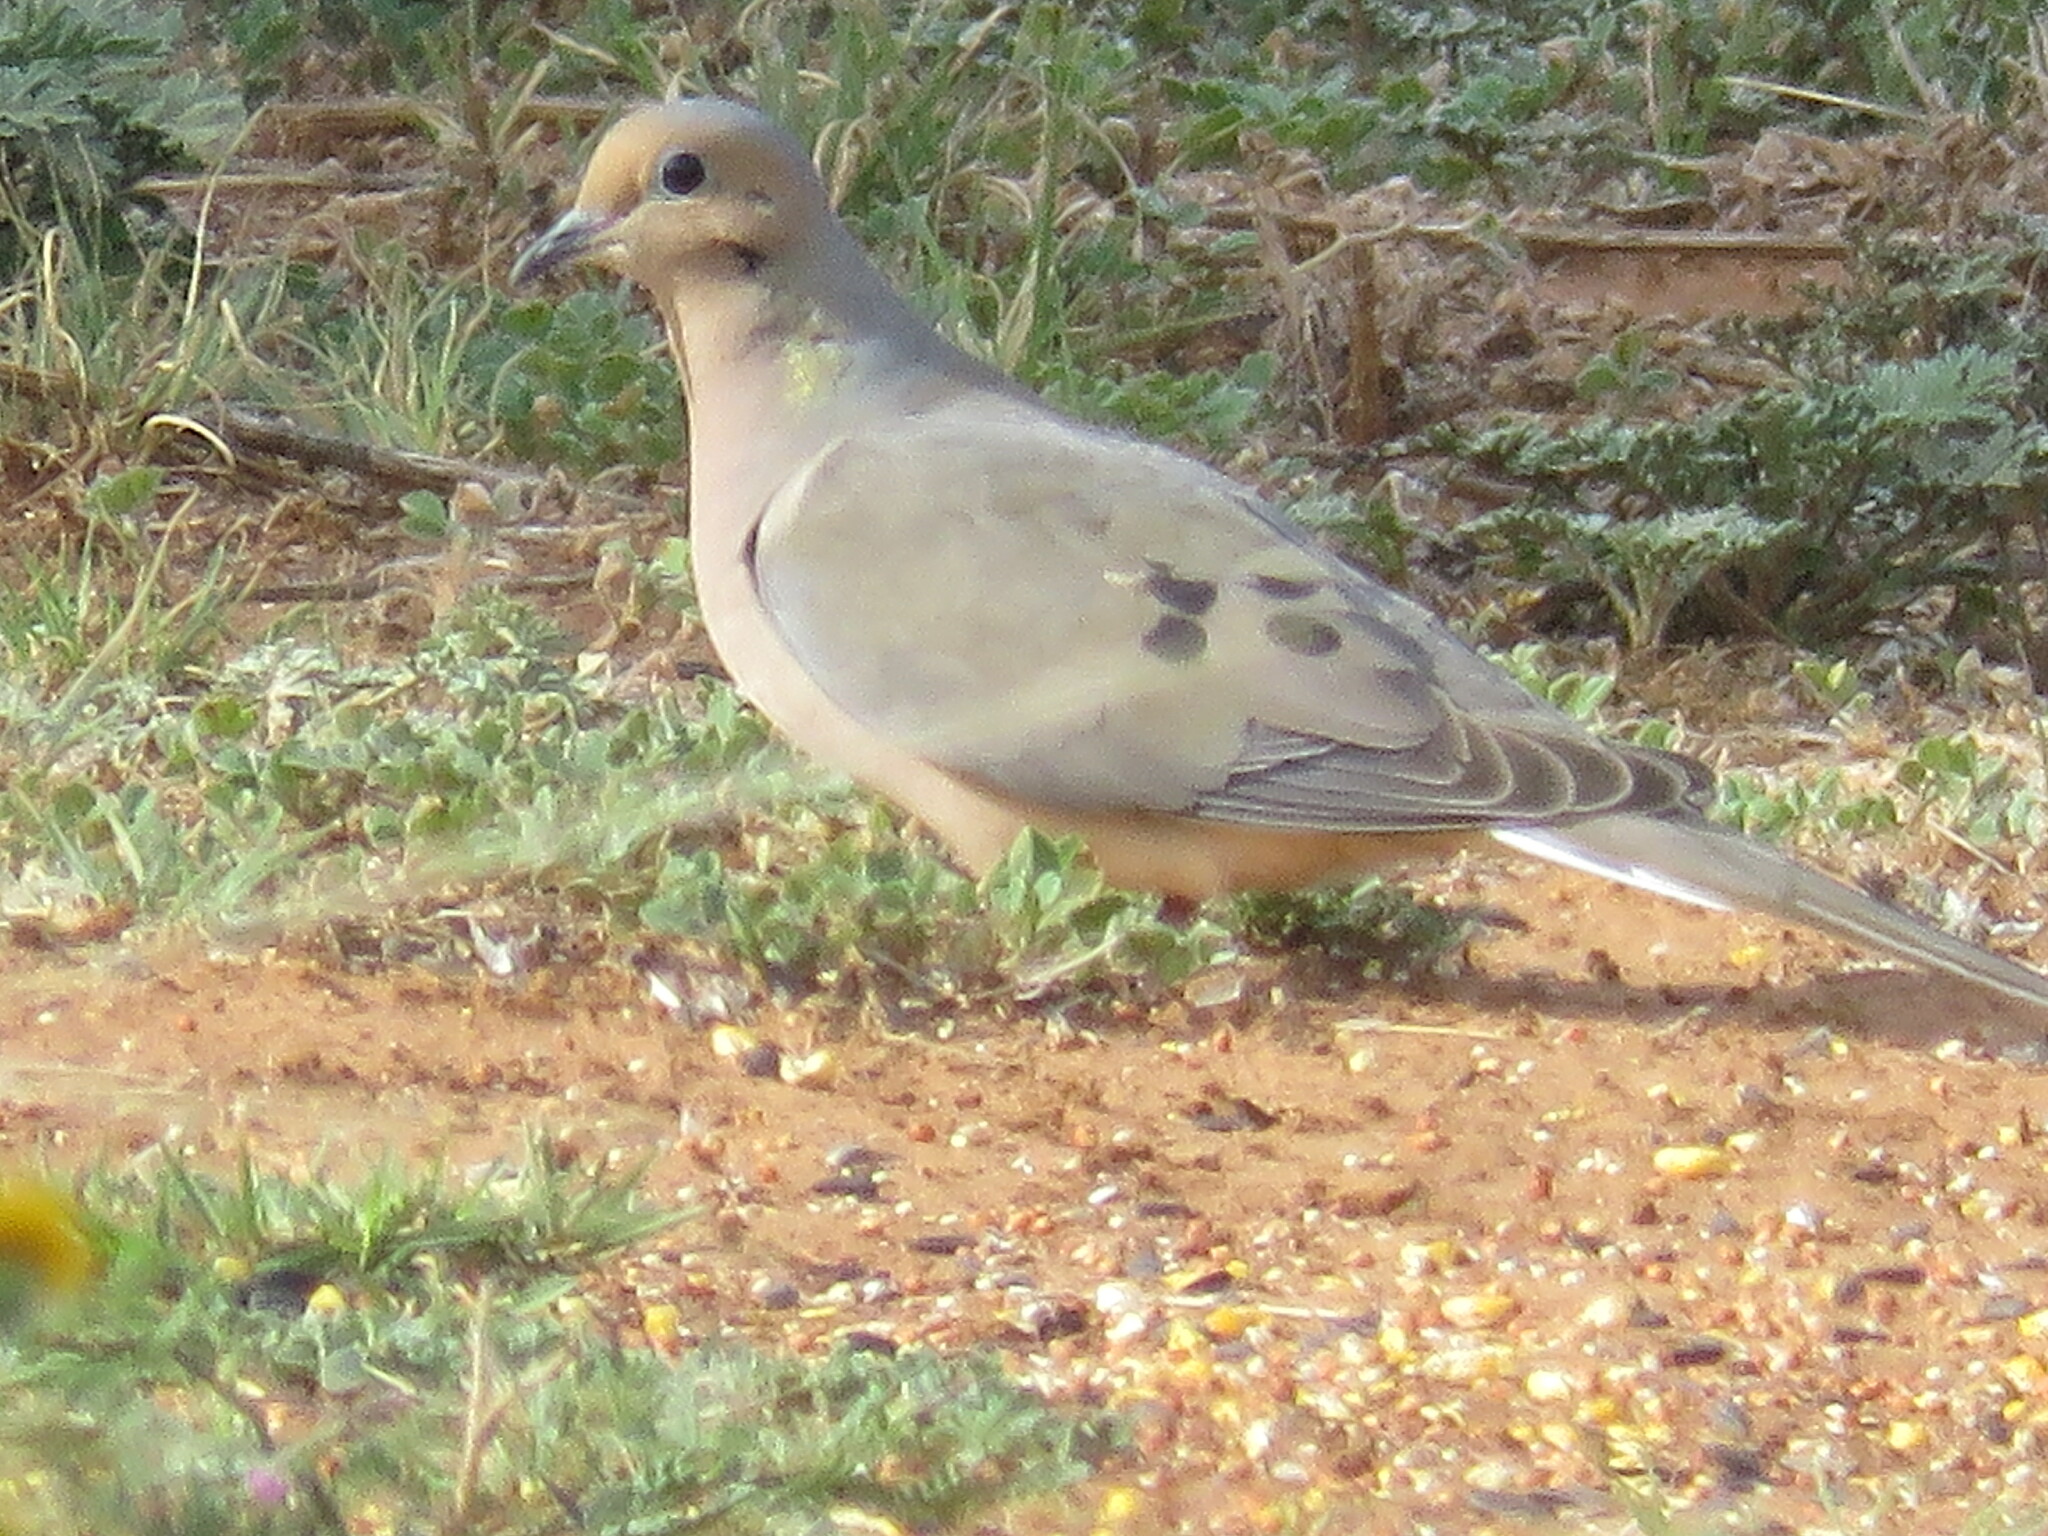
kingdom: Animalia
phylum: Chordata
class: Aves
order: Columbiformes
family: Columbidae
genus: Zenaida
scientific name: Zenaida macroura
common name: Mourning dove
